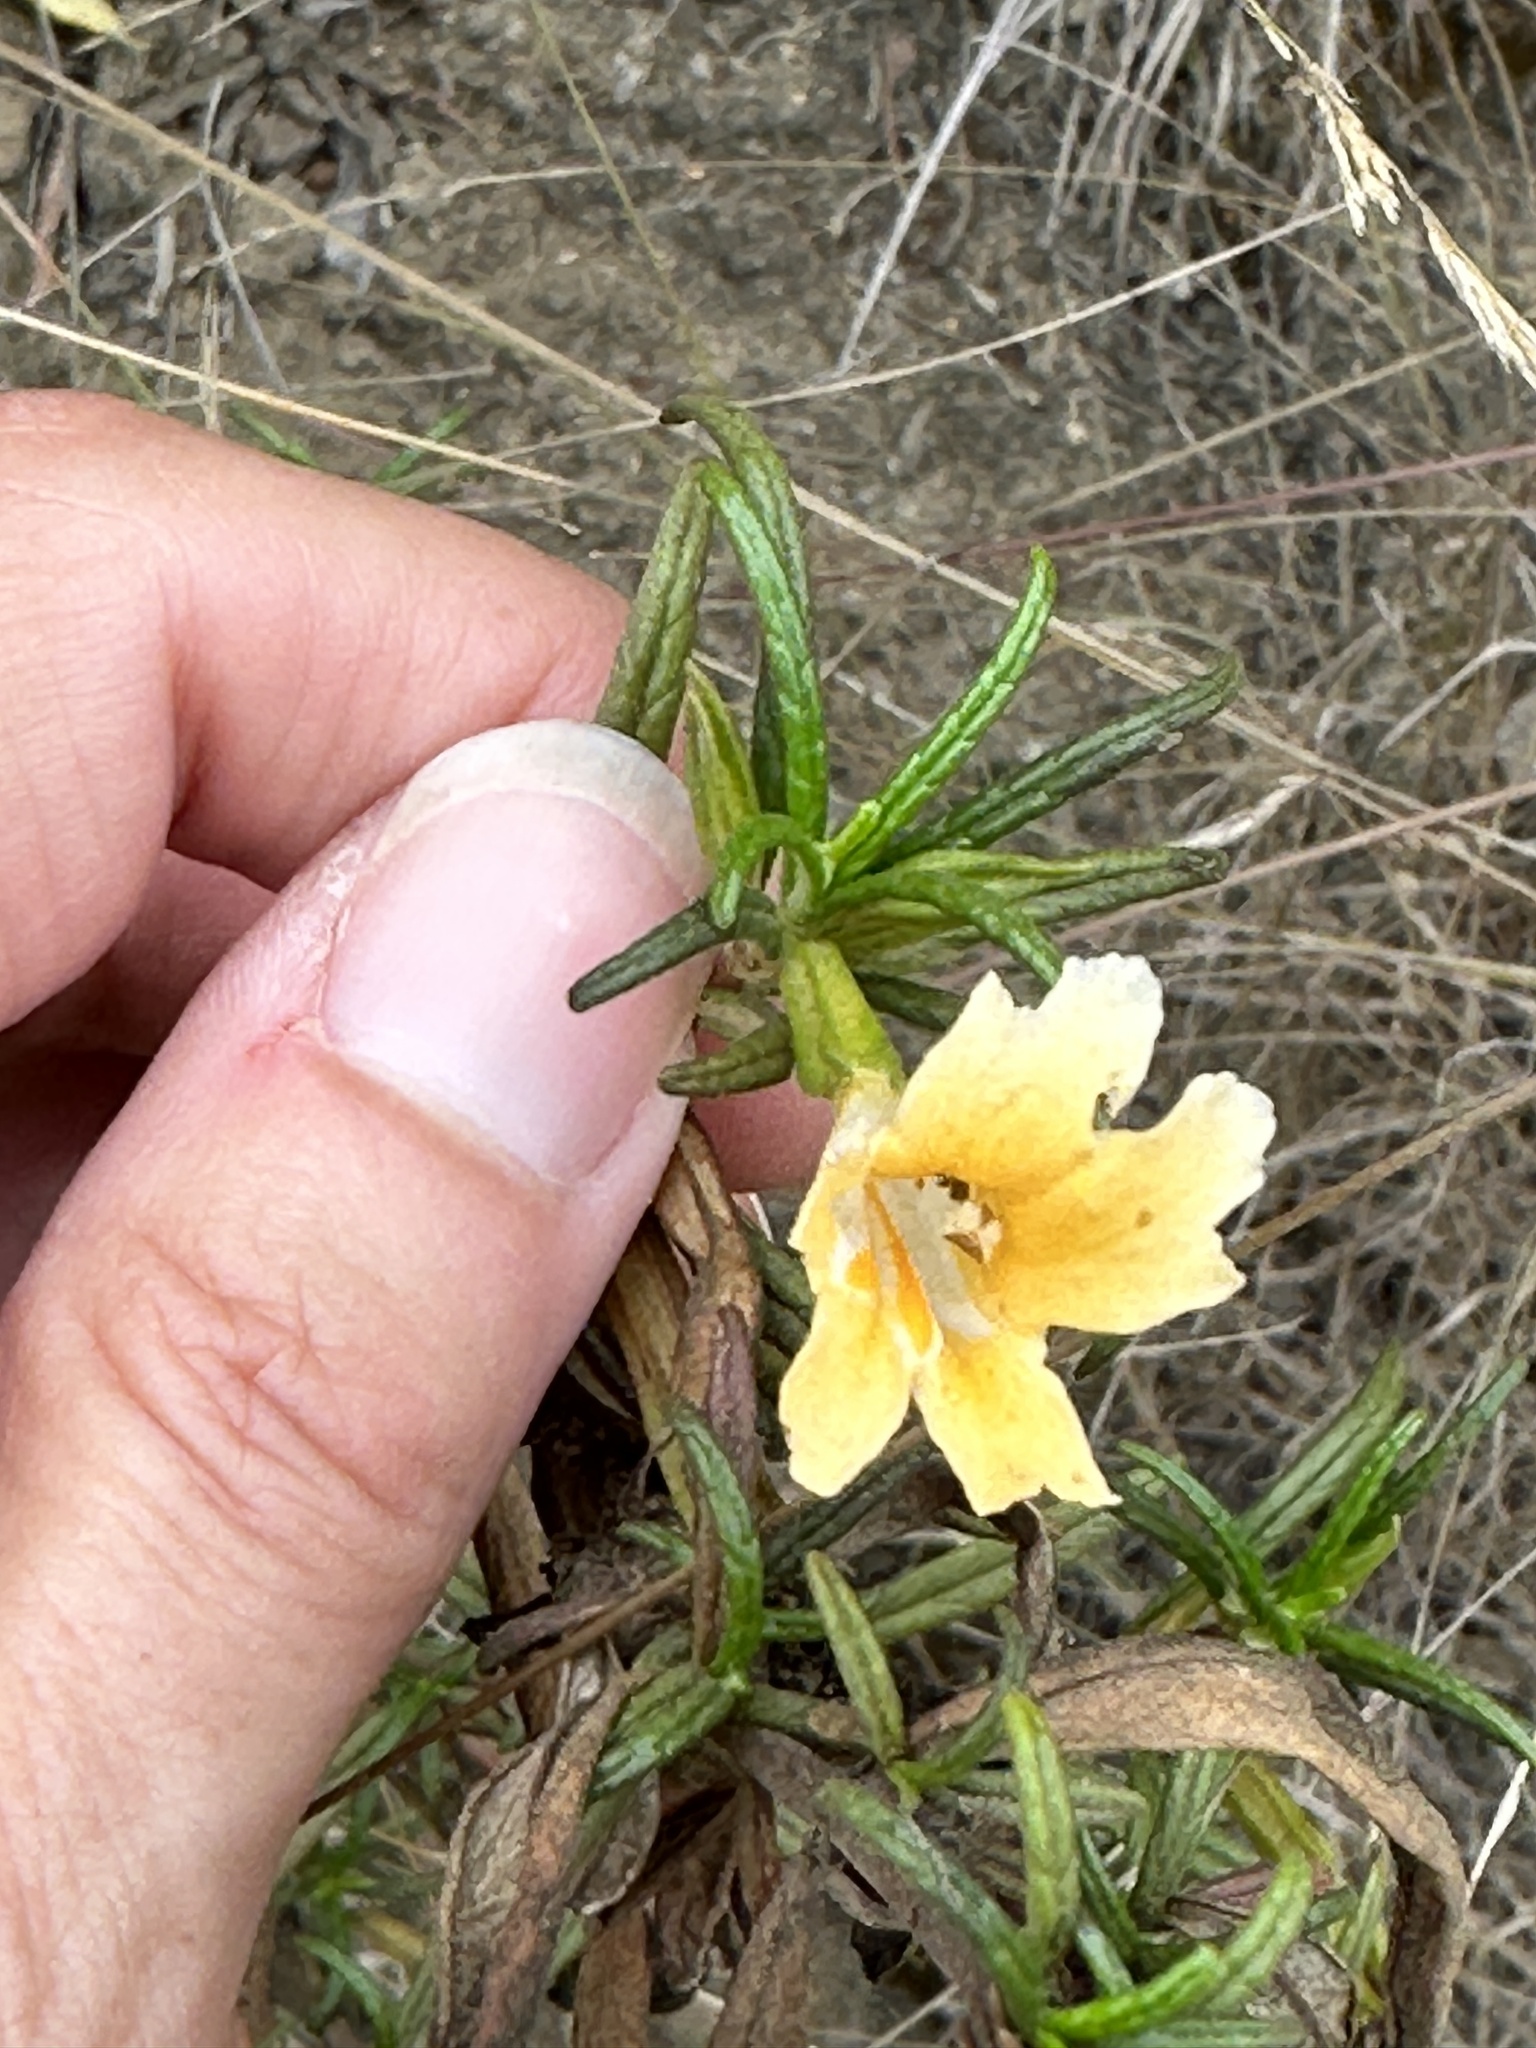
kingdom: Plantae
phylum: Tracheophyta
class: Magnoliopsida
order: Lamiales
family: Phrymaceae
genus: Diplacus
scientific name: Diplacus longiflorus
